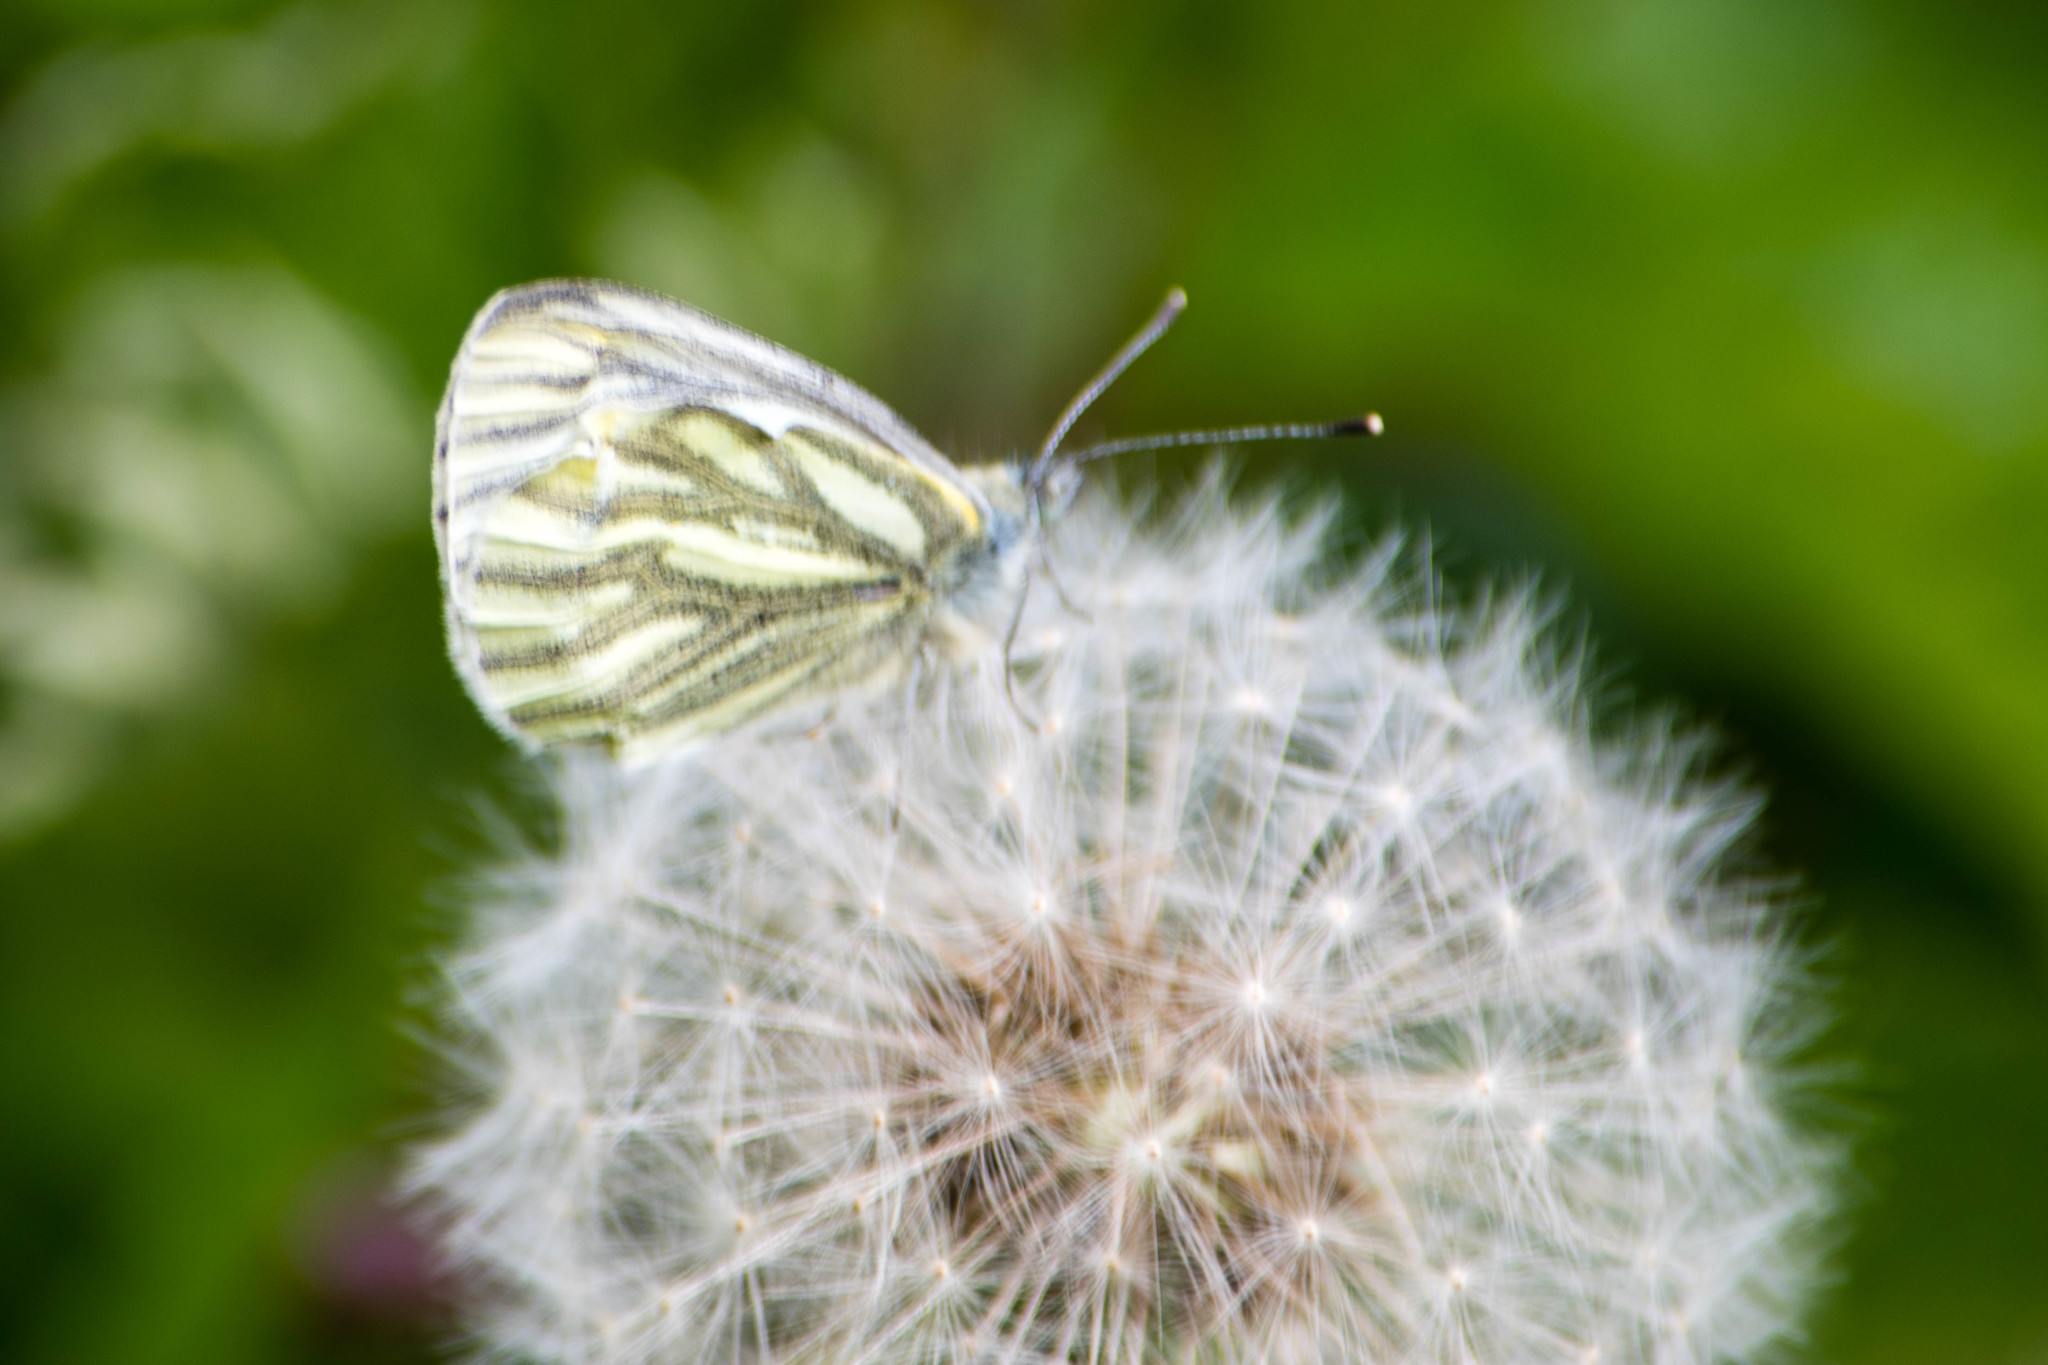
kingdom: Animalia
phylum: Arthropoda
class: Insecta
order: Lepidoptera
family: Pieridae
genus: Pieris
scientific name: Pieris napi
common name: Green-veined white
